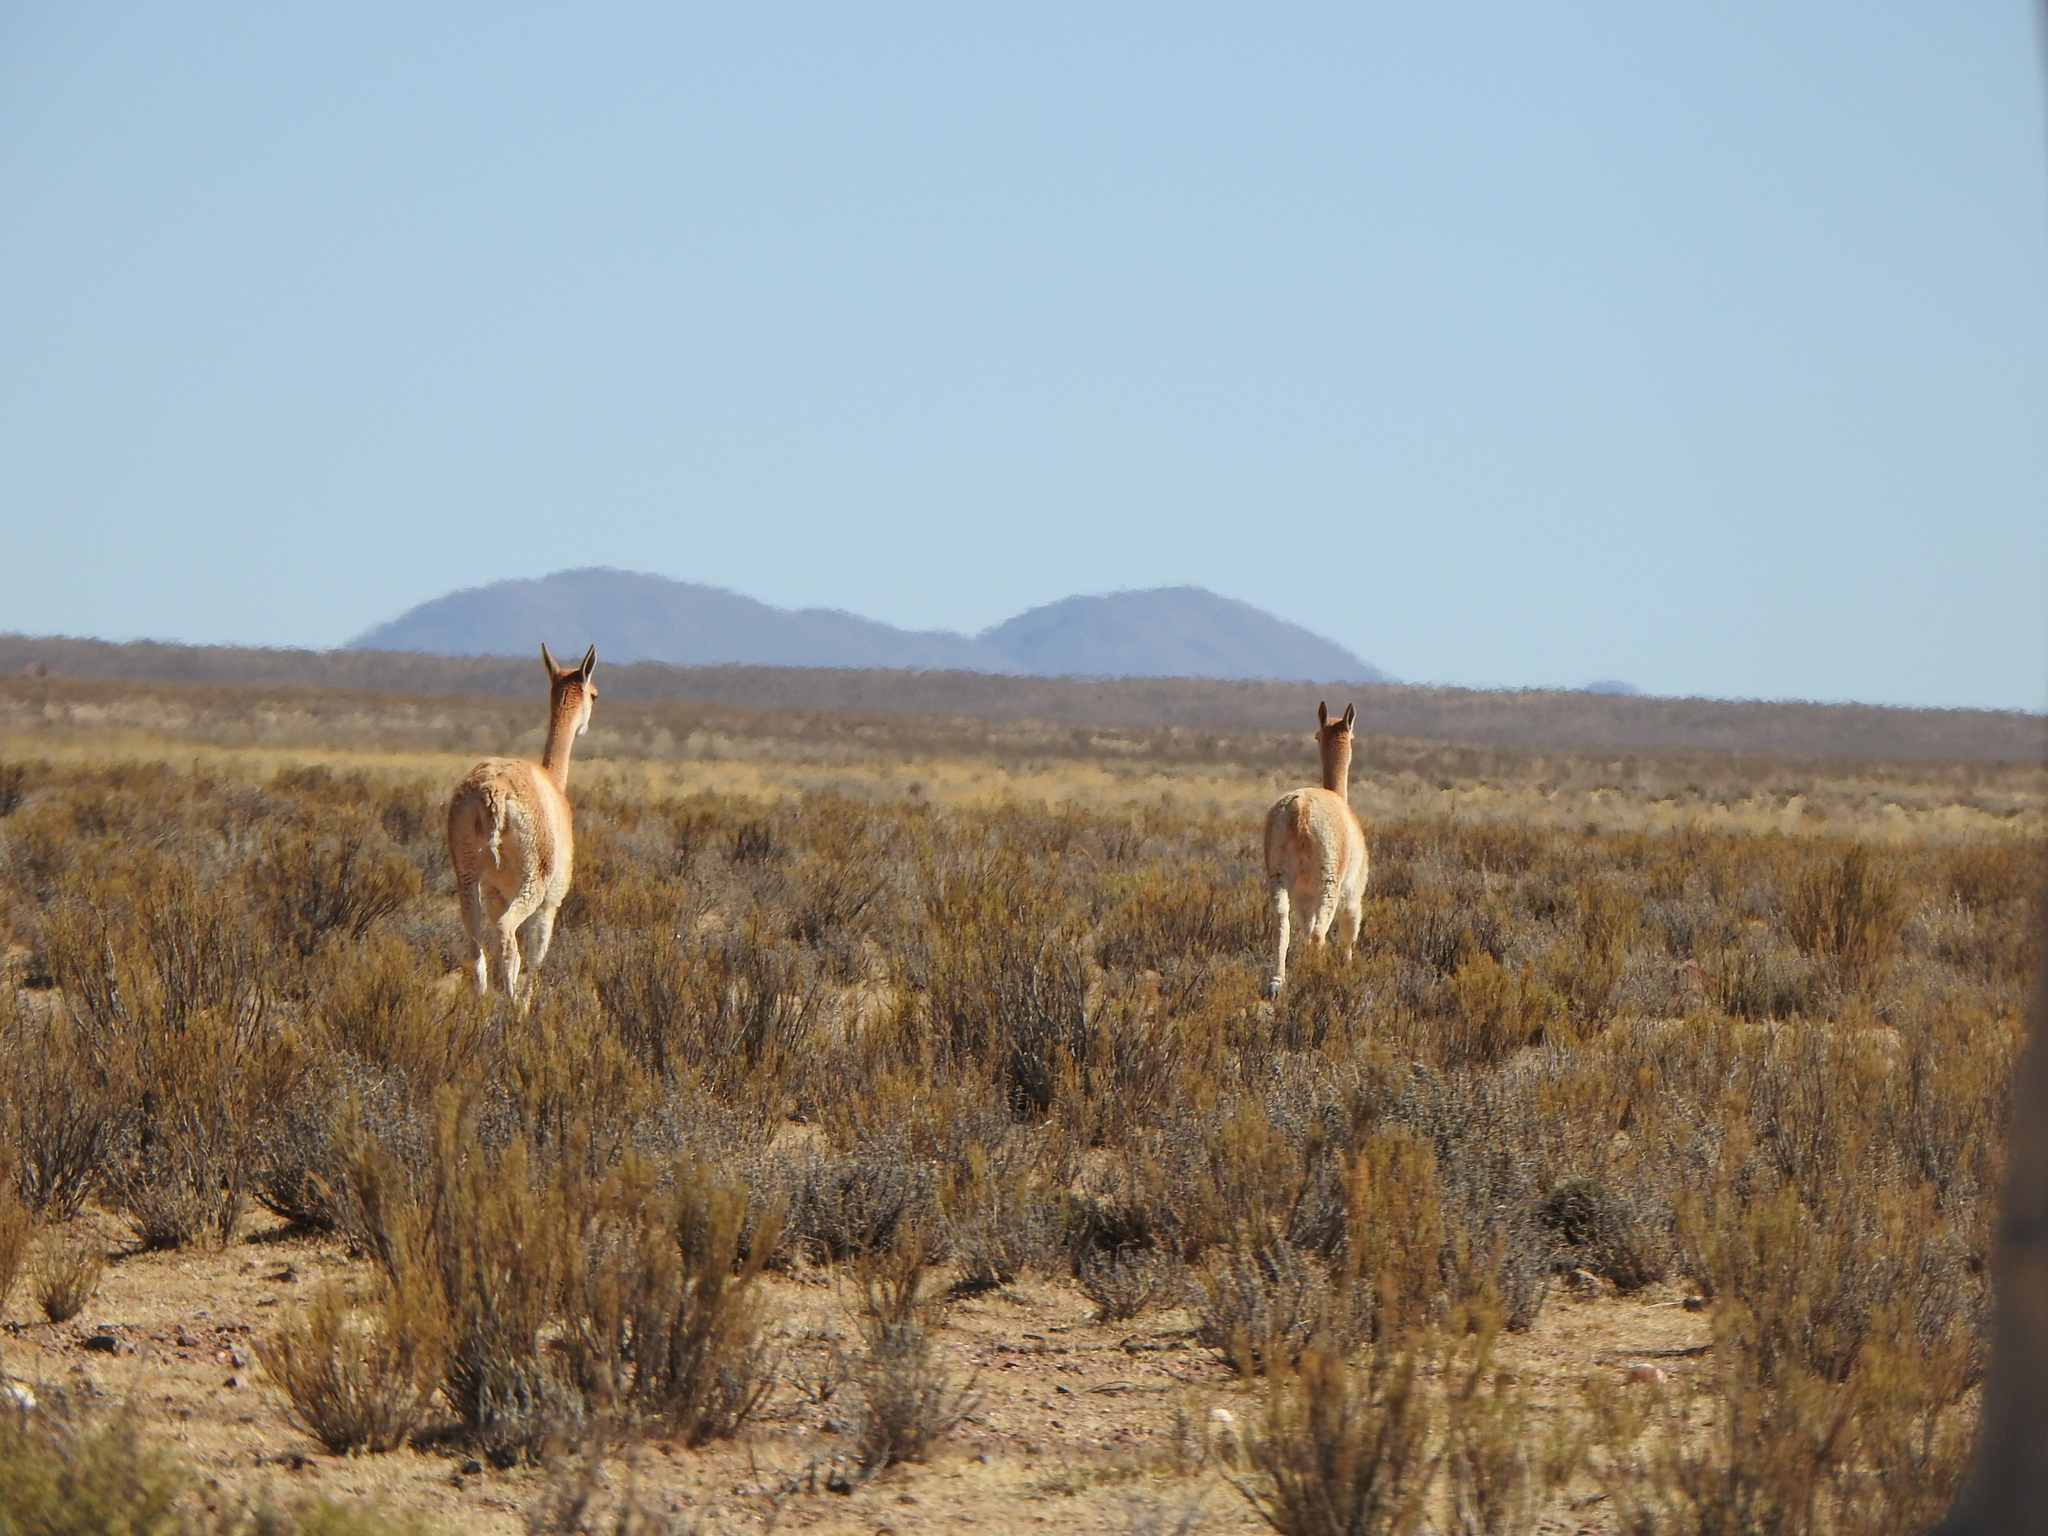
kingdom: Animalia
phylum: Chordata
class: Mammalia
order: Artiodactyla
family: Camelidae
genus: Vicugna
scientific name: Vicugna vicugna
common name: Vicugna
